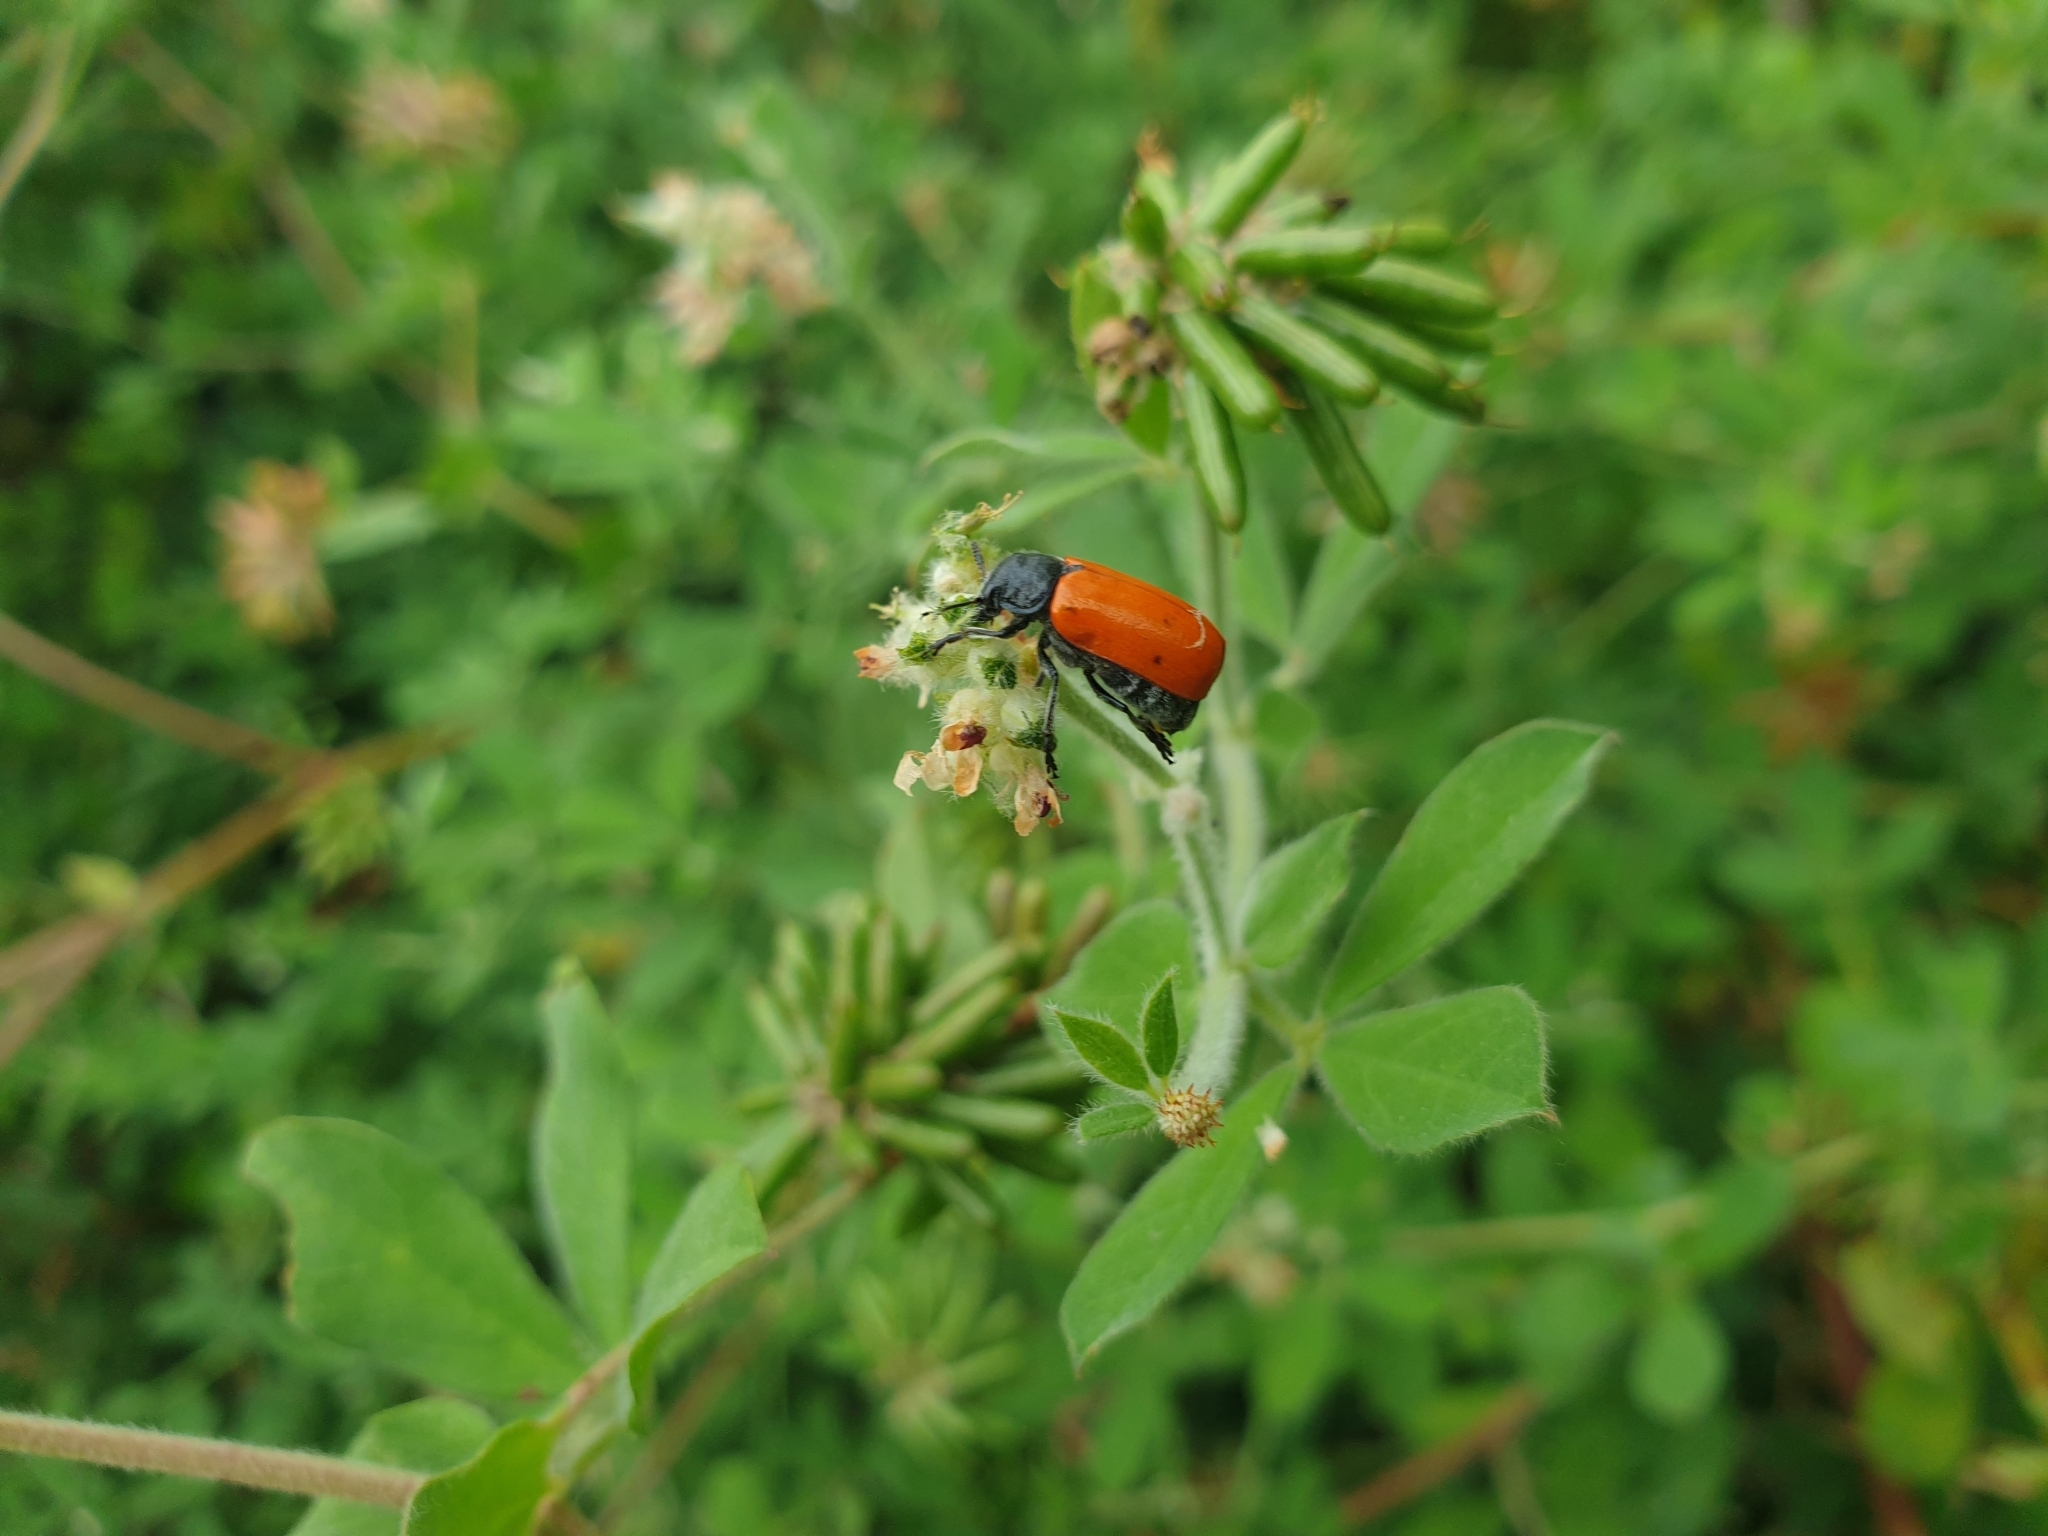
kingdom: Animalia
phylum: Arthropoda
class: Insecta
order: Coleoptera
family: Chrysomelidae
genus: Lachnaia
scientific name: Lachnaia paradoxa
